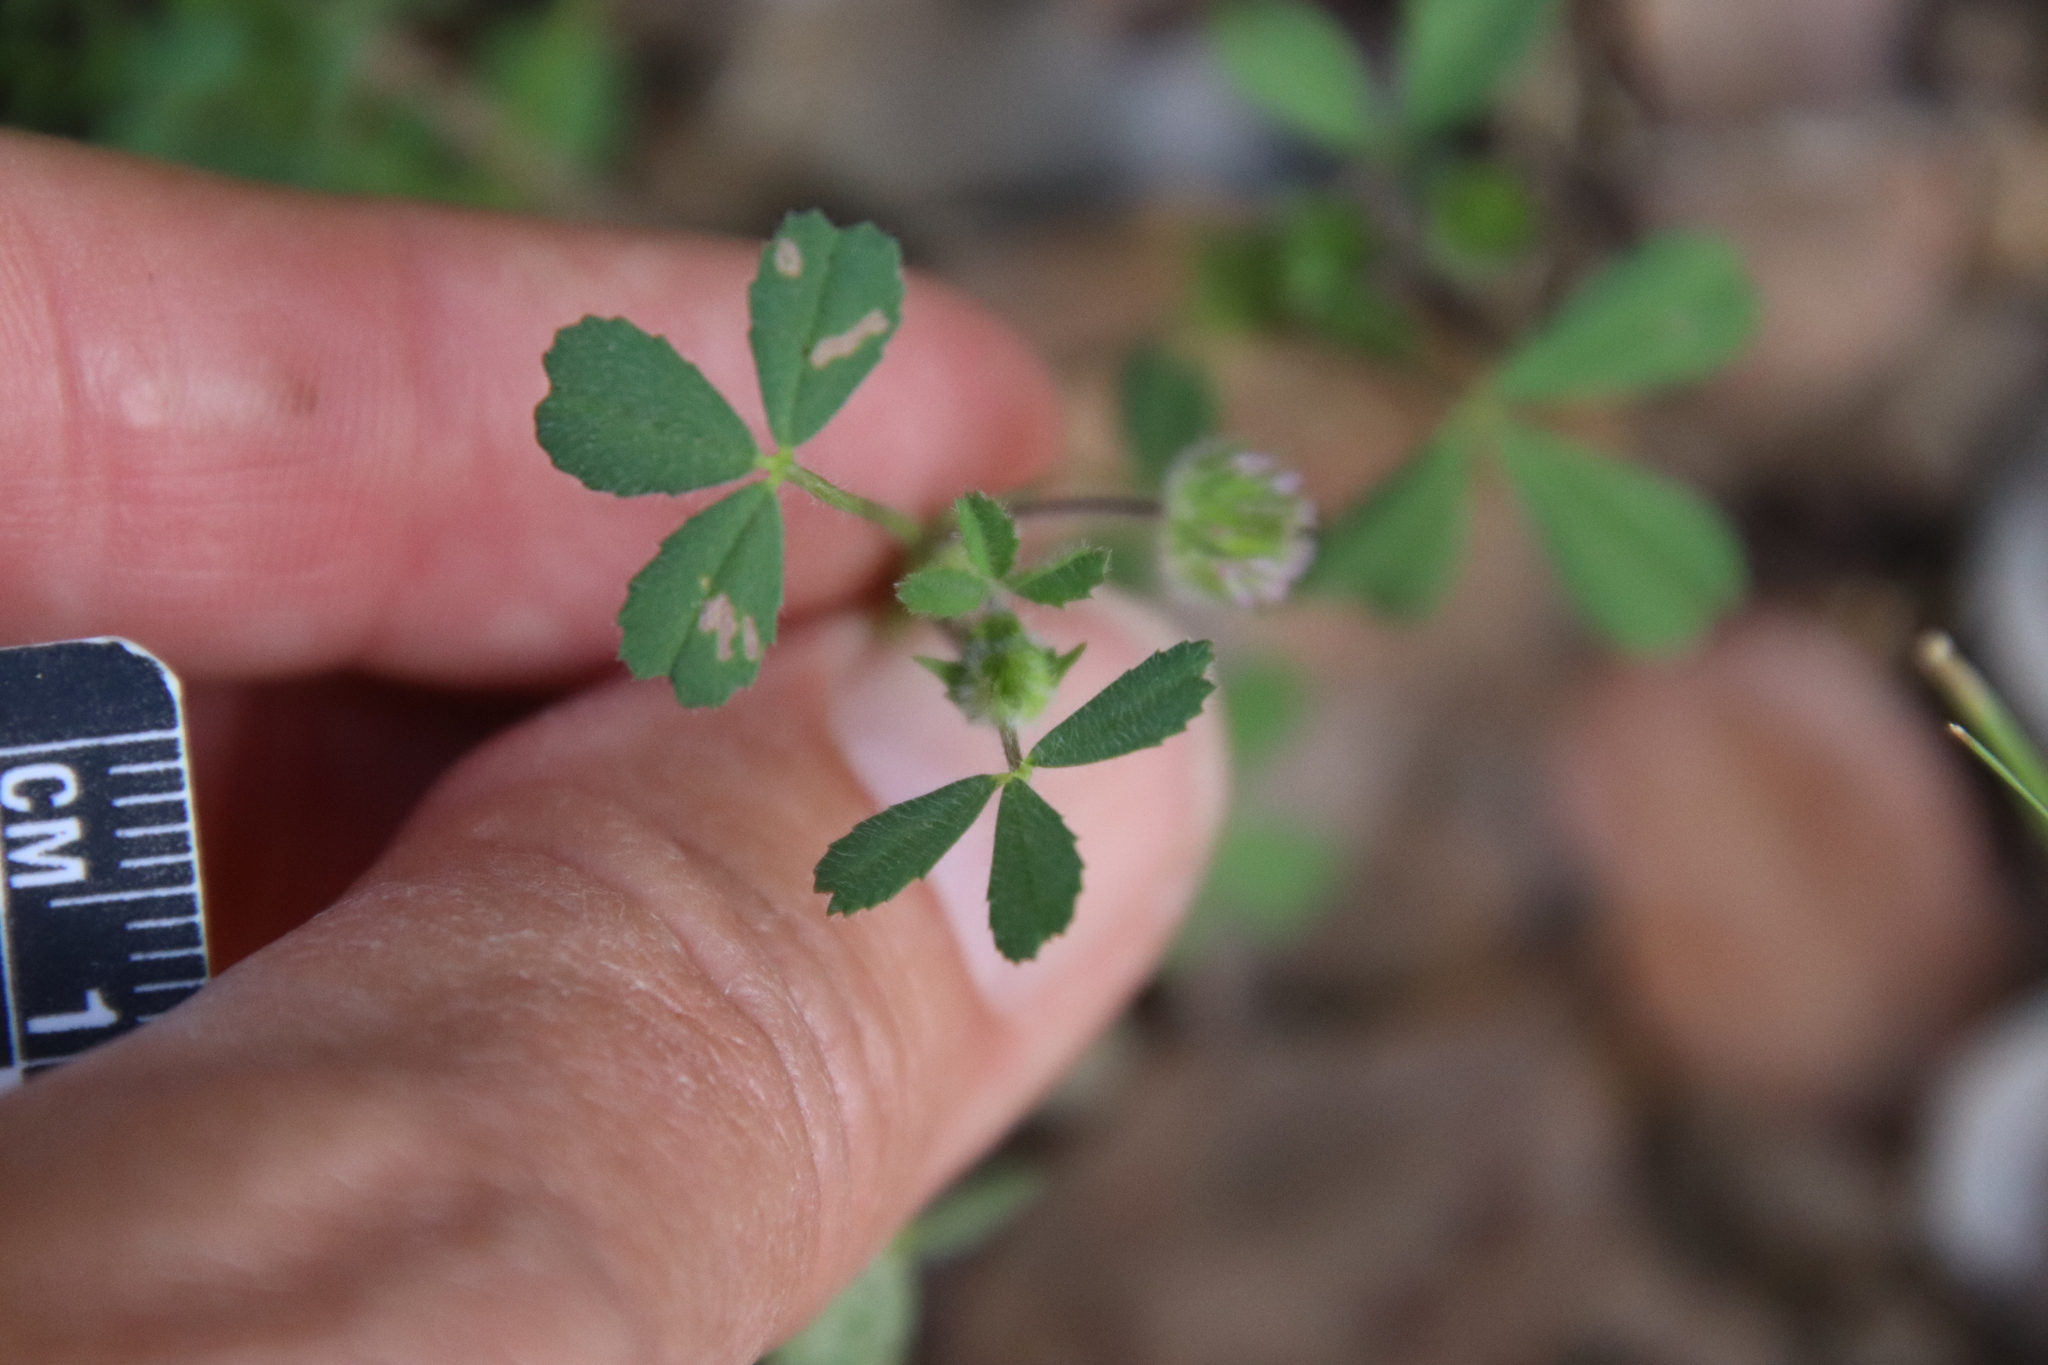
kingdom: Plantae
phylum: Tracheophyta
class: Magnoliopsida
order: Fabales
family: Fabaceae
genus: Trifolium
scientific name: Trifolium microcephalum
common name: Maiden clover
